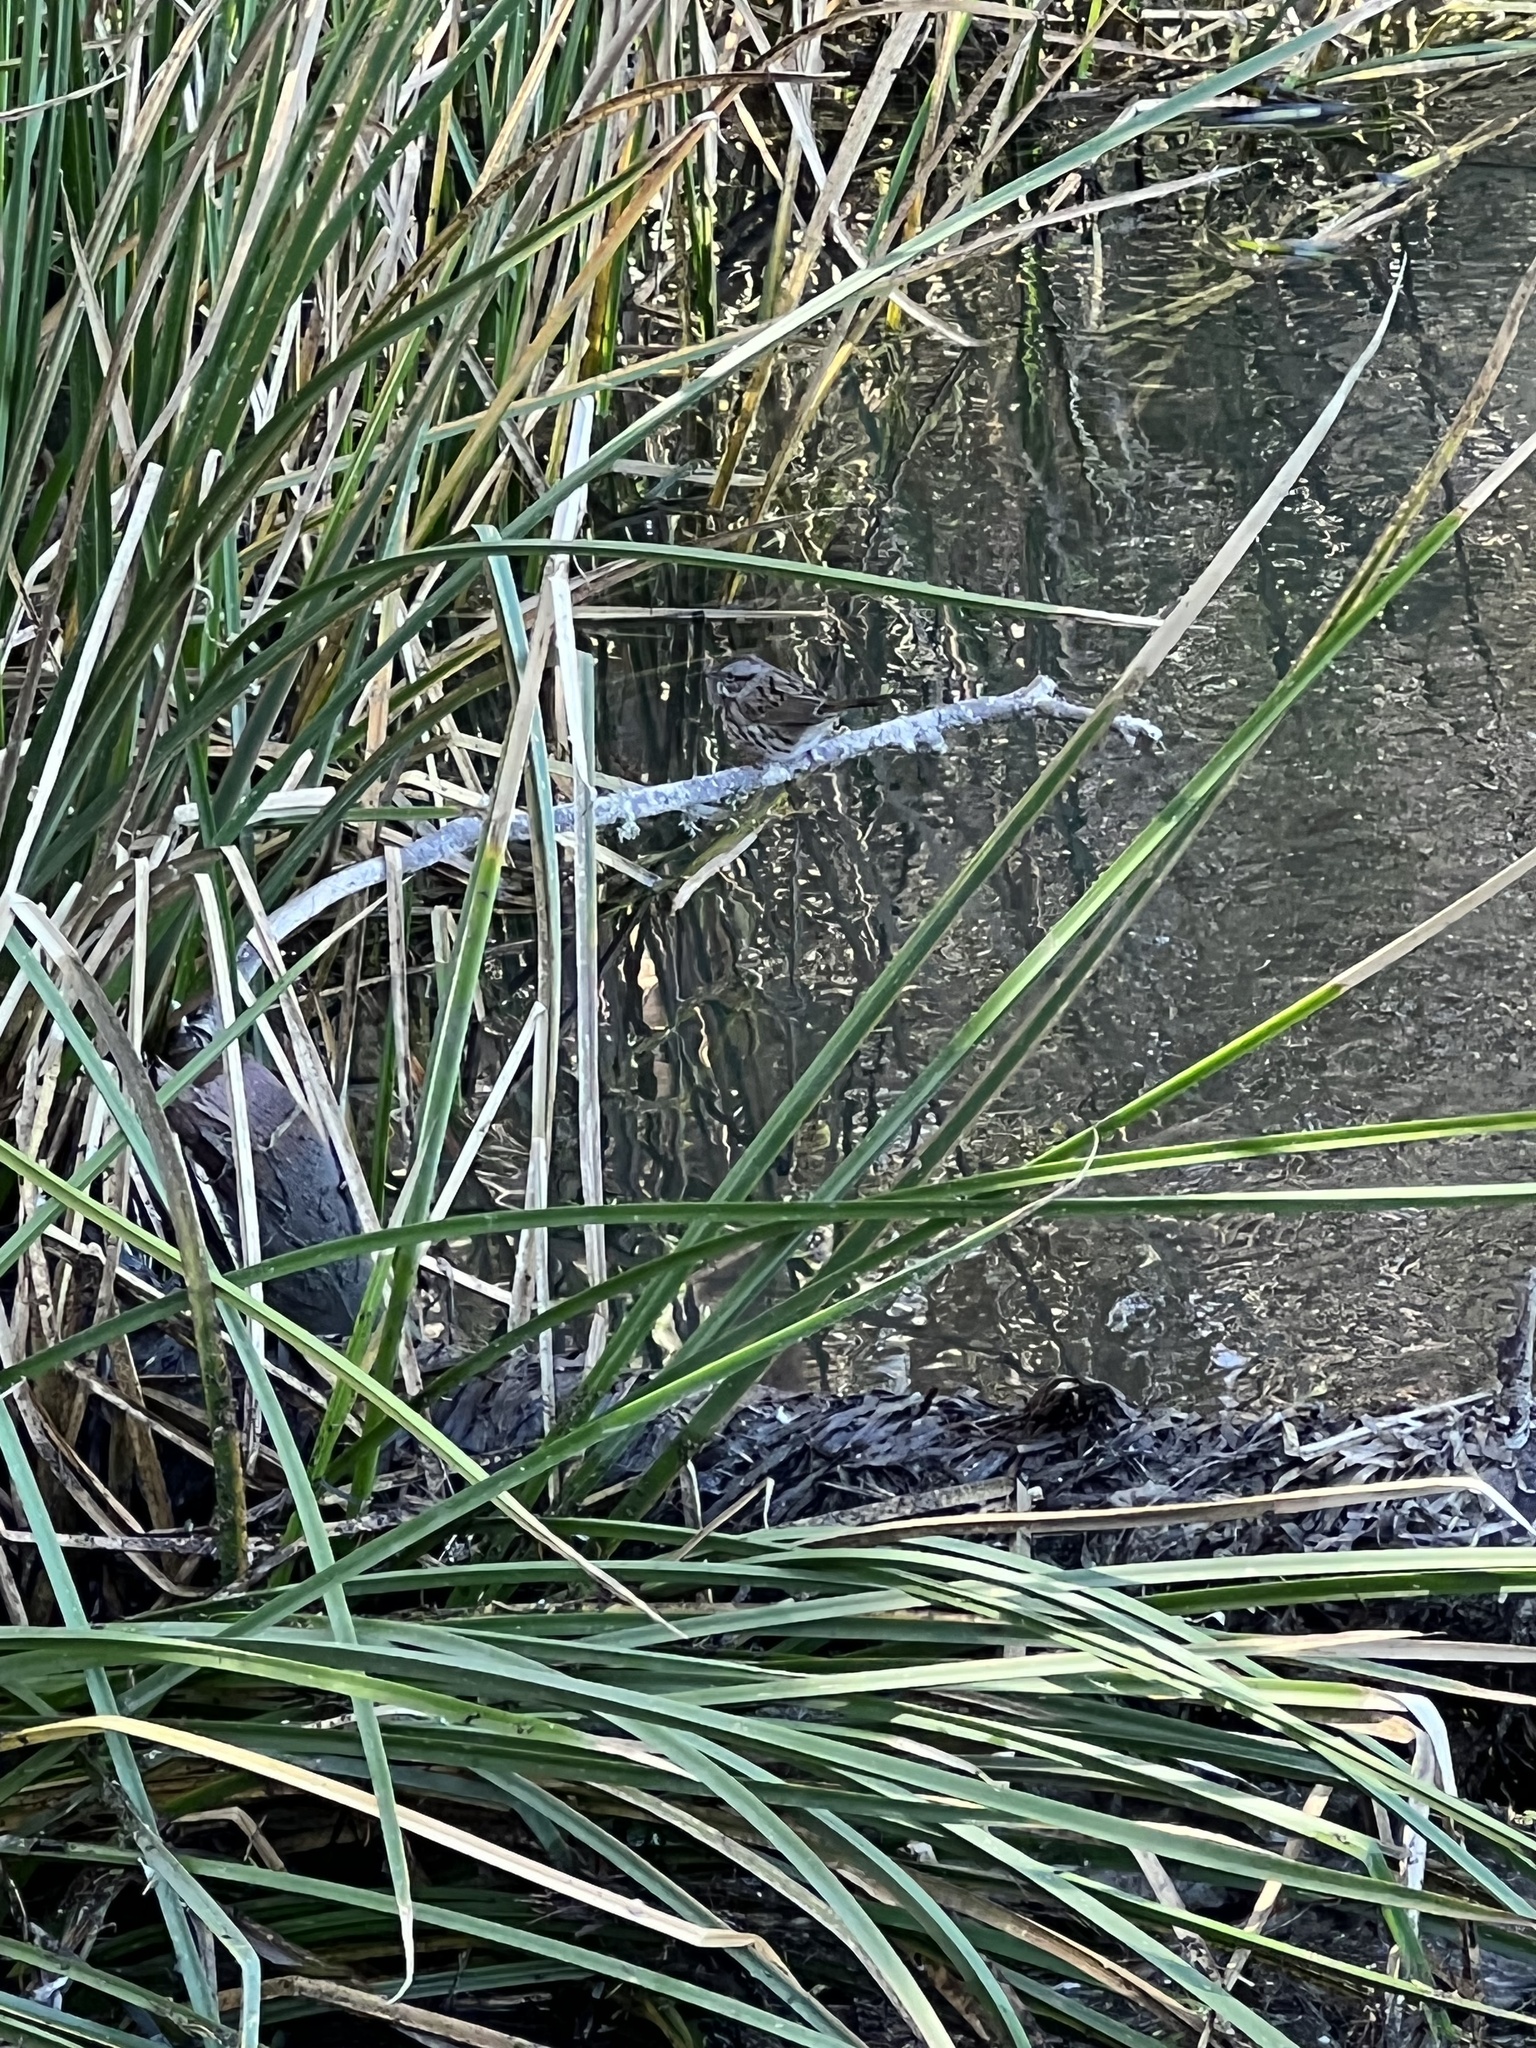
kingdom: Animalia
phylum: Chordata
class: Aves
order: Passeriformes
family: Passerellidae
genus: Melospiza
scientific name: Melospiza melodia
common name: Song sparrow
